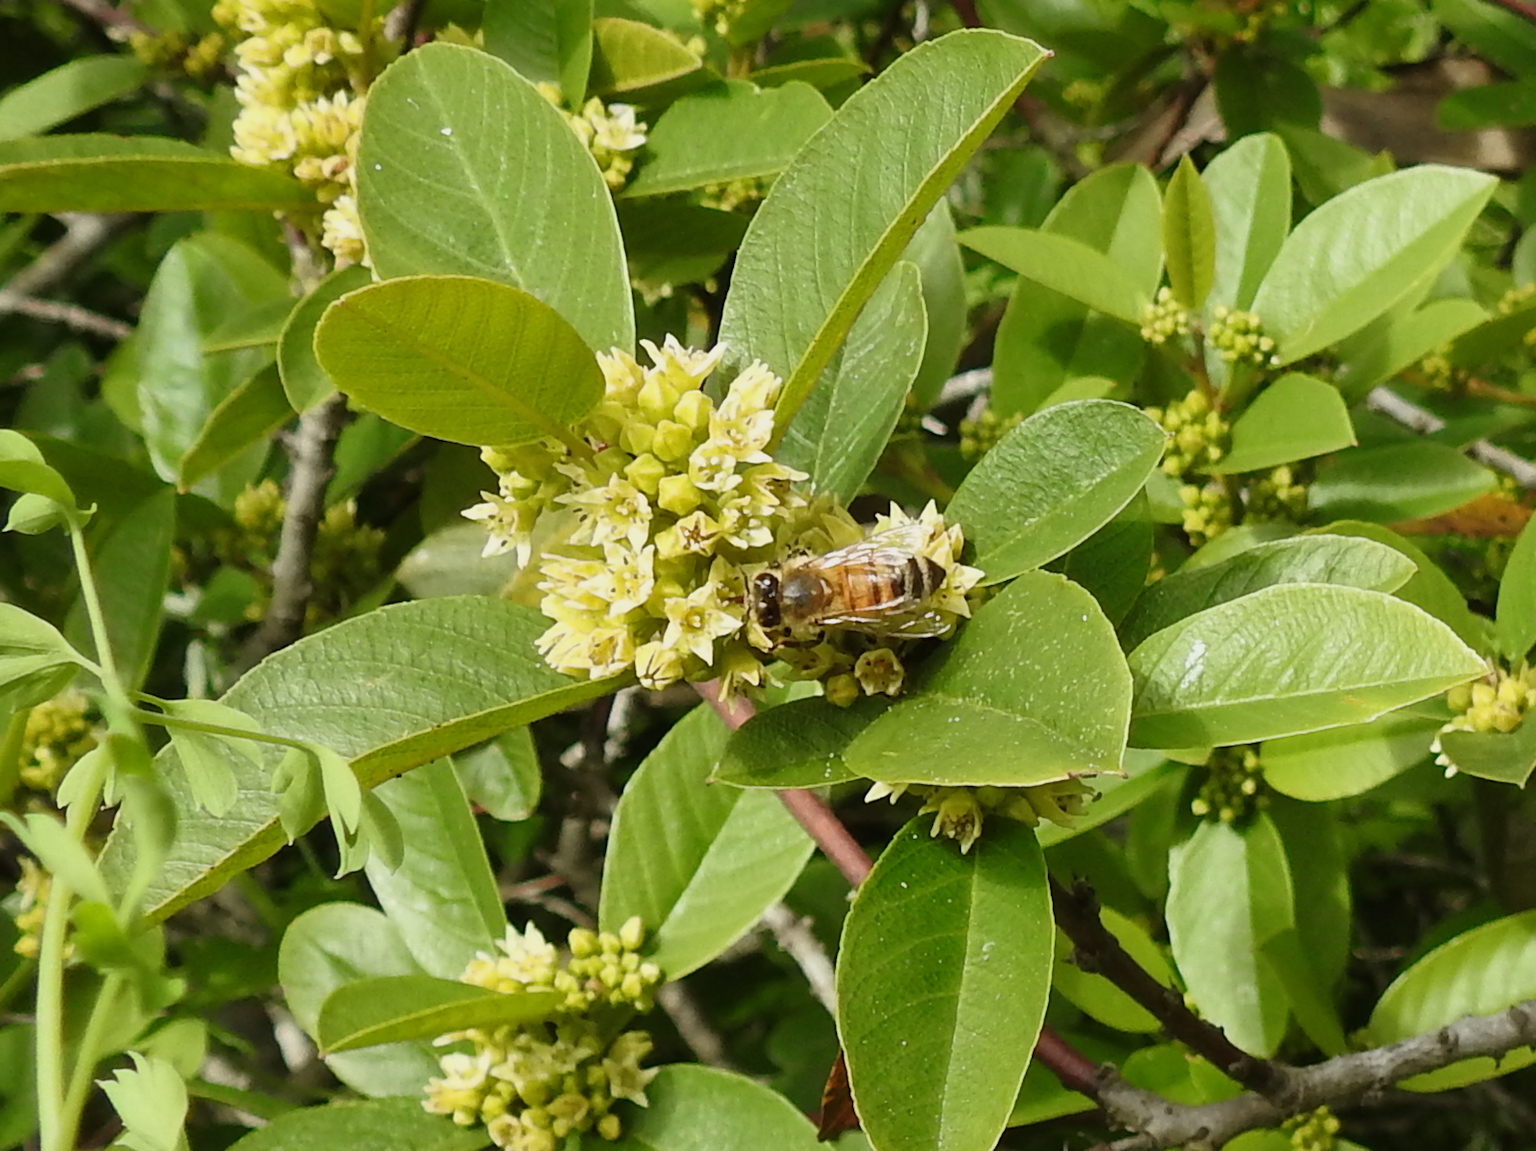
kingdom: Animalia
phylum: Arthropoda
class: Insecta
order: Hymenoptera
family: Apidae
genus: Apis
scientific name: Apis mellifera
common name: Honey bee
